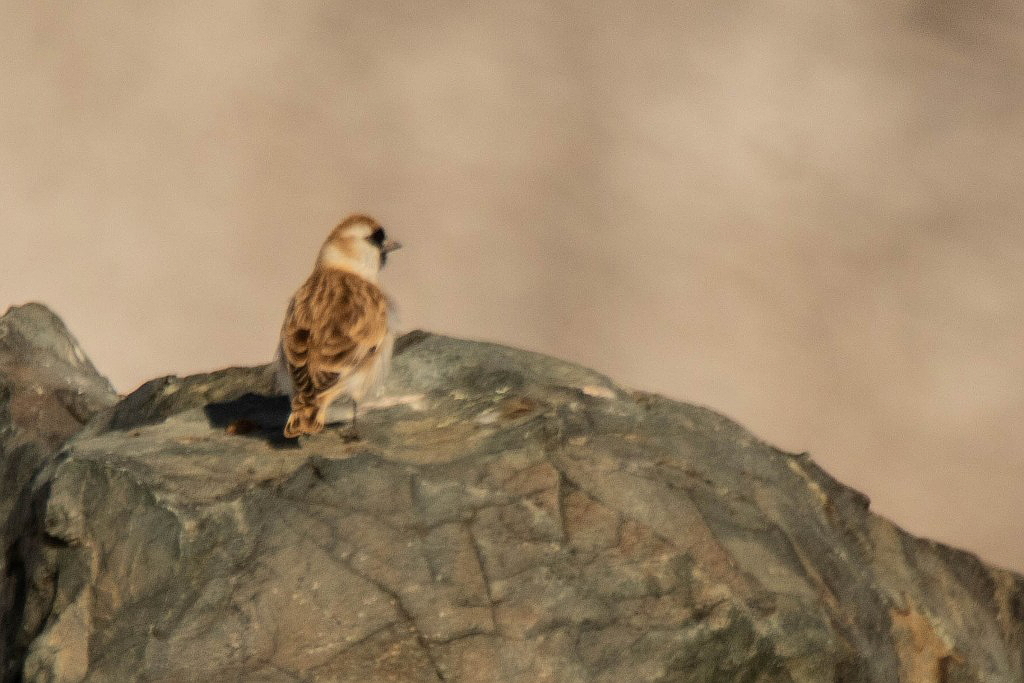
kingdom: Animalia
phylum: Chordata
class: Aves
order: Passeriformes
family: Passeridae
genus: Pyrgilauda
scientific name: Pyrgilauda davidiana
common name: Pere david's snowfinch
